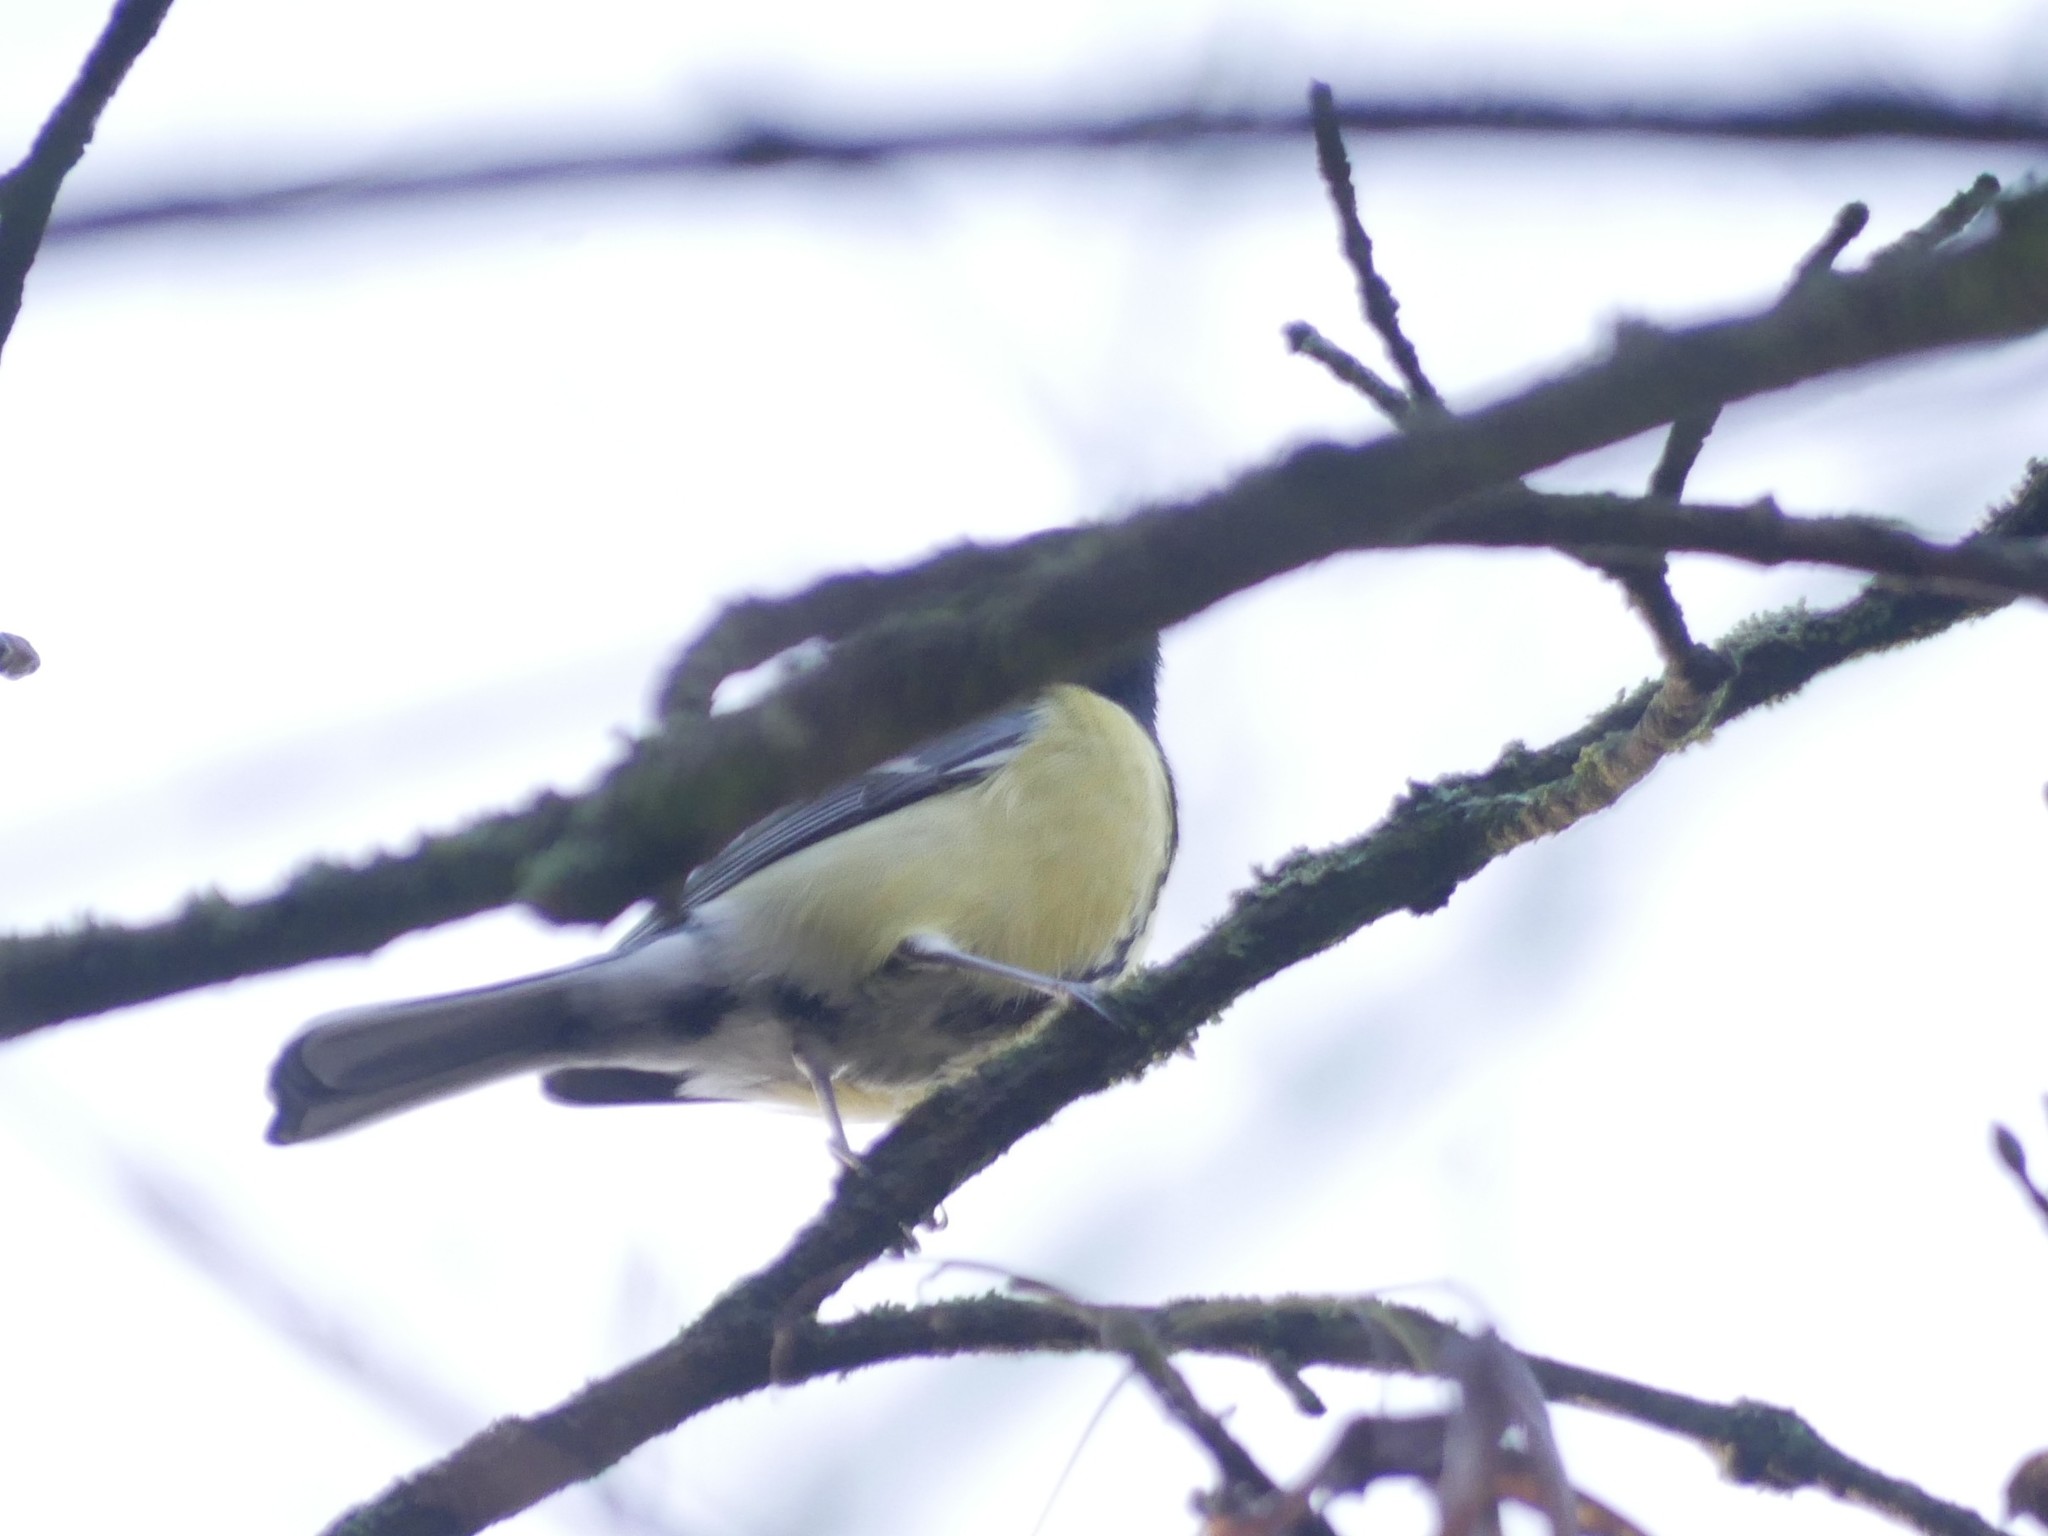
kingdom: Animalia
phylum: Chordata
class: Aves
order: Passeriformes
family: Paridae
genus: Parus
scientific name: Parus major
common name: Great tit
